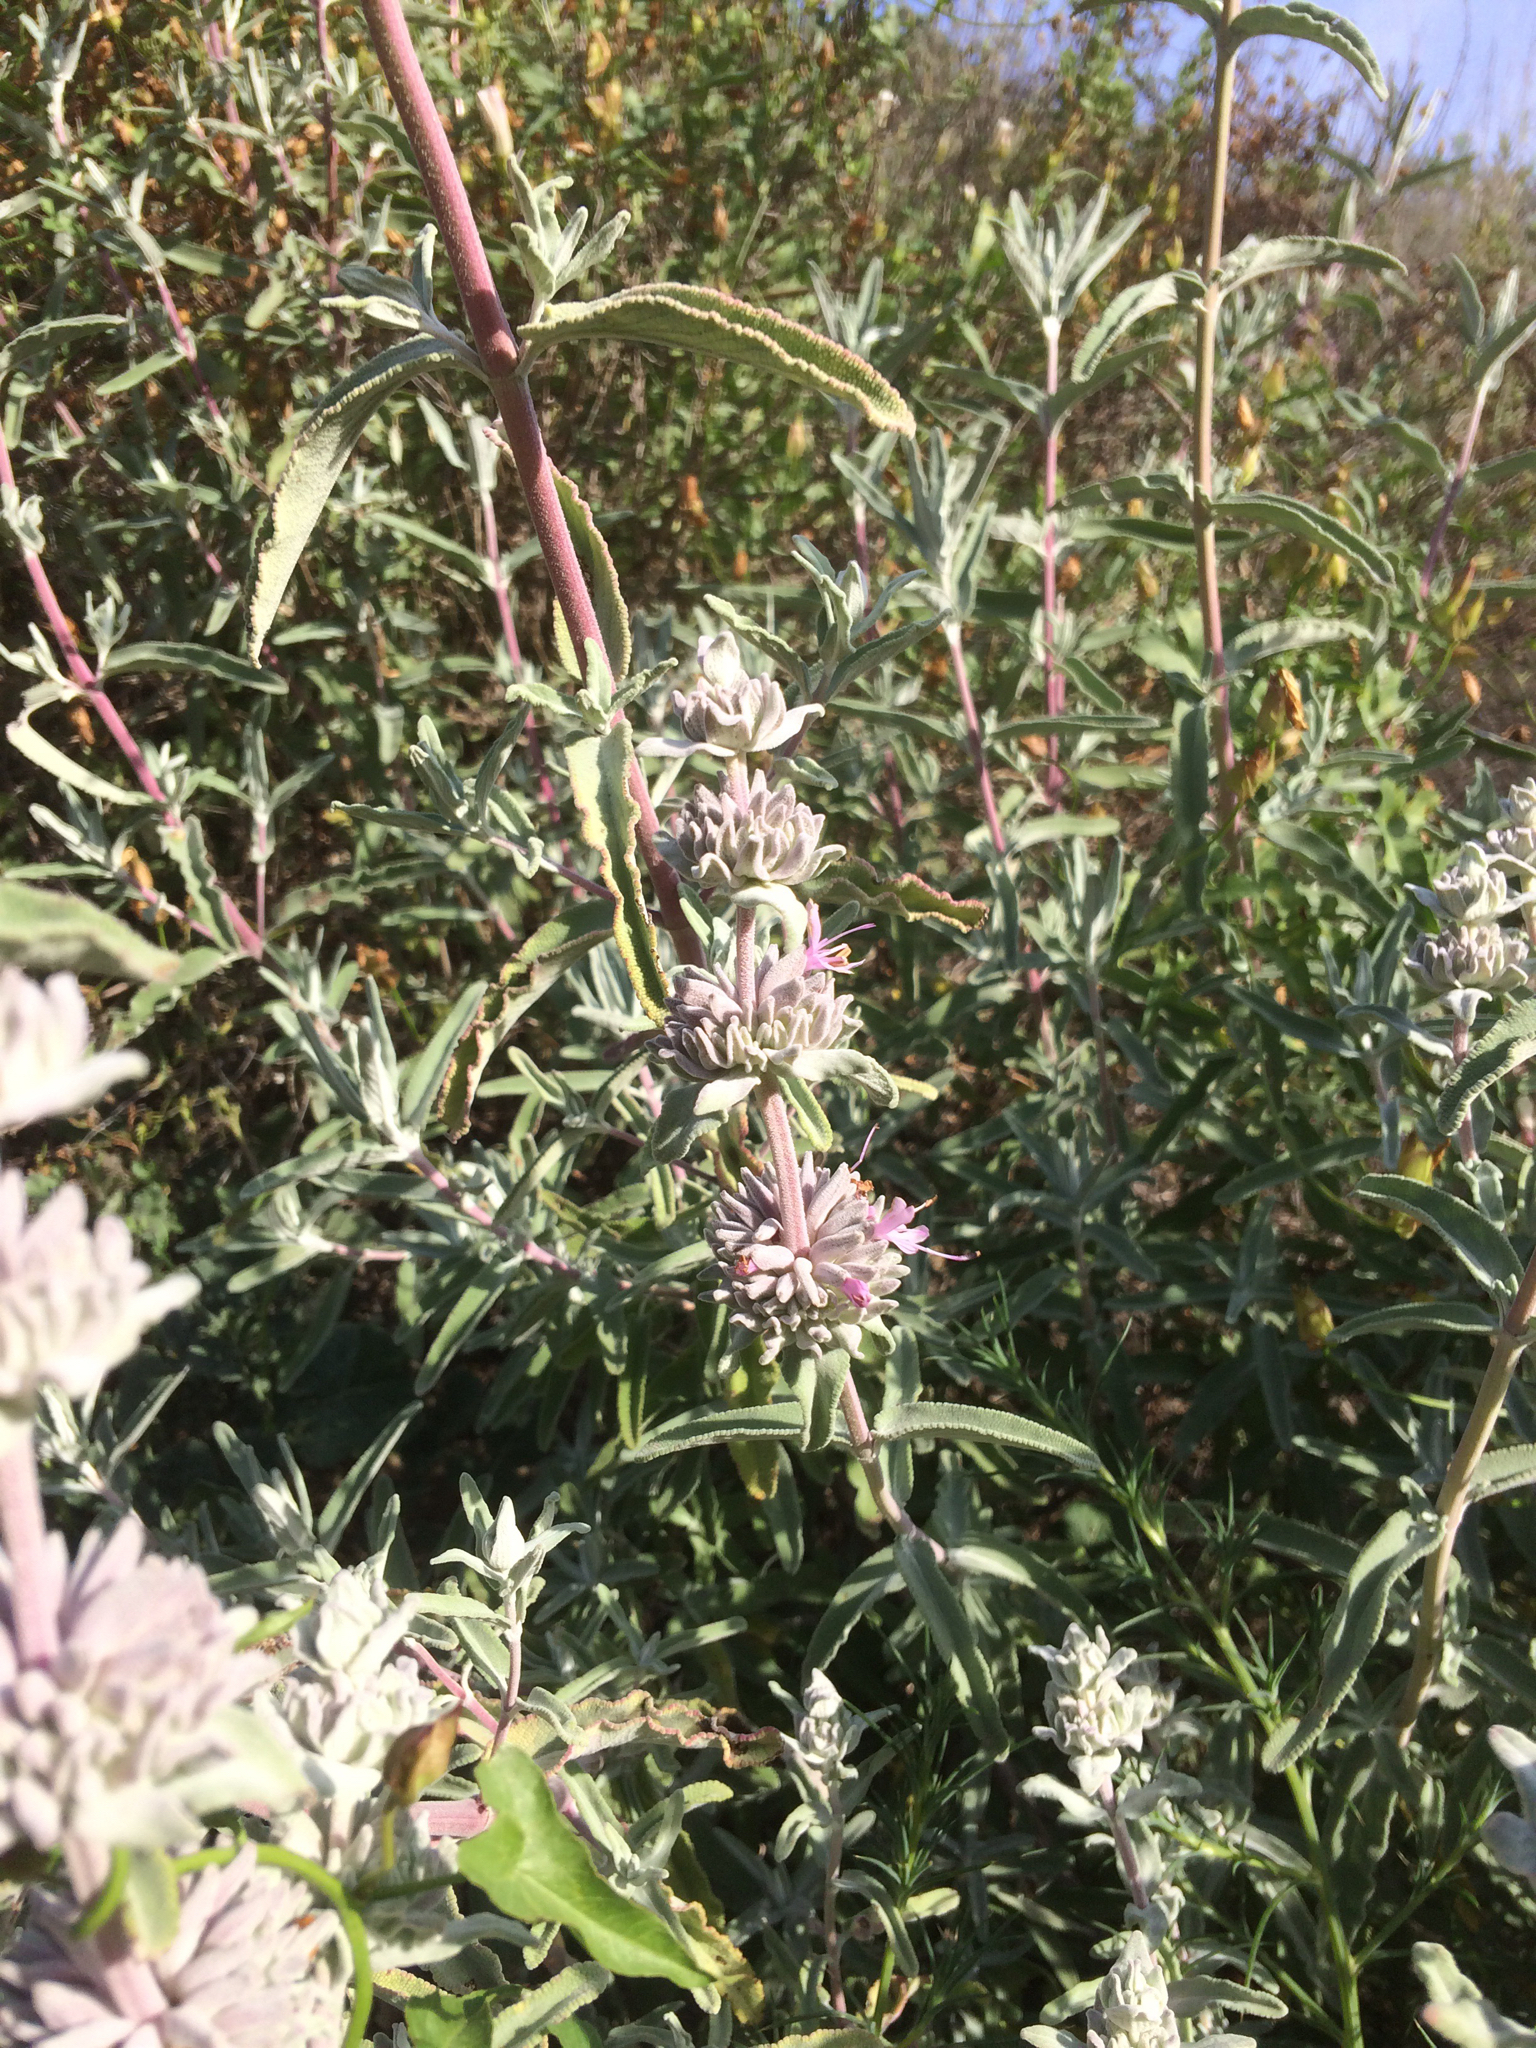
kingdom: Plantae
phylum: Tracheophyta
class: Magnoliopsida
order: Lamiales
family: Lamiaceae
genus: Salvia
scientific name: Salvia leucophylla
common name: Purple sage
